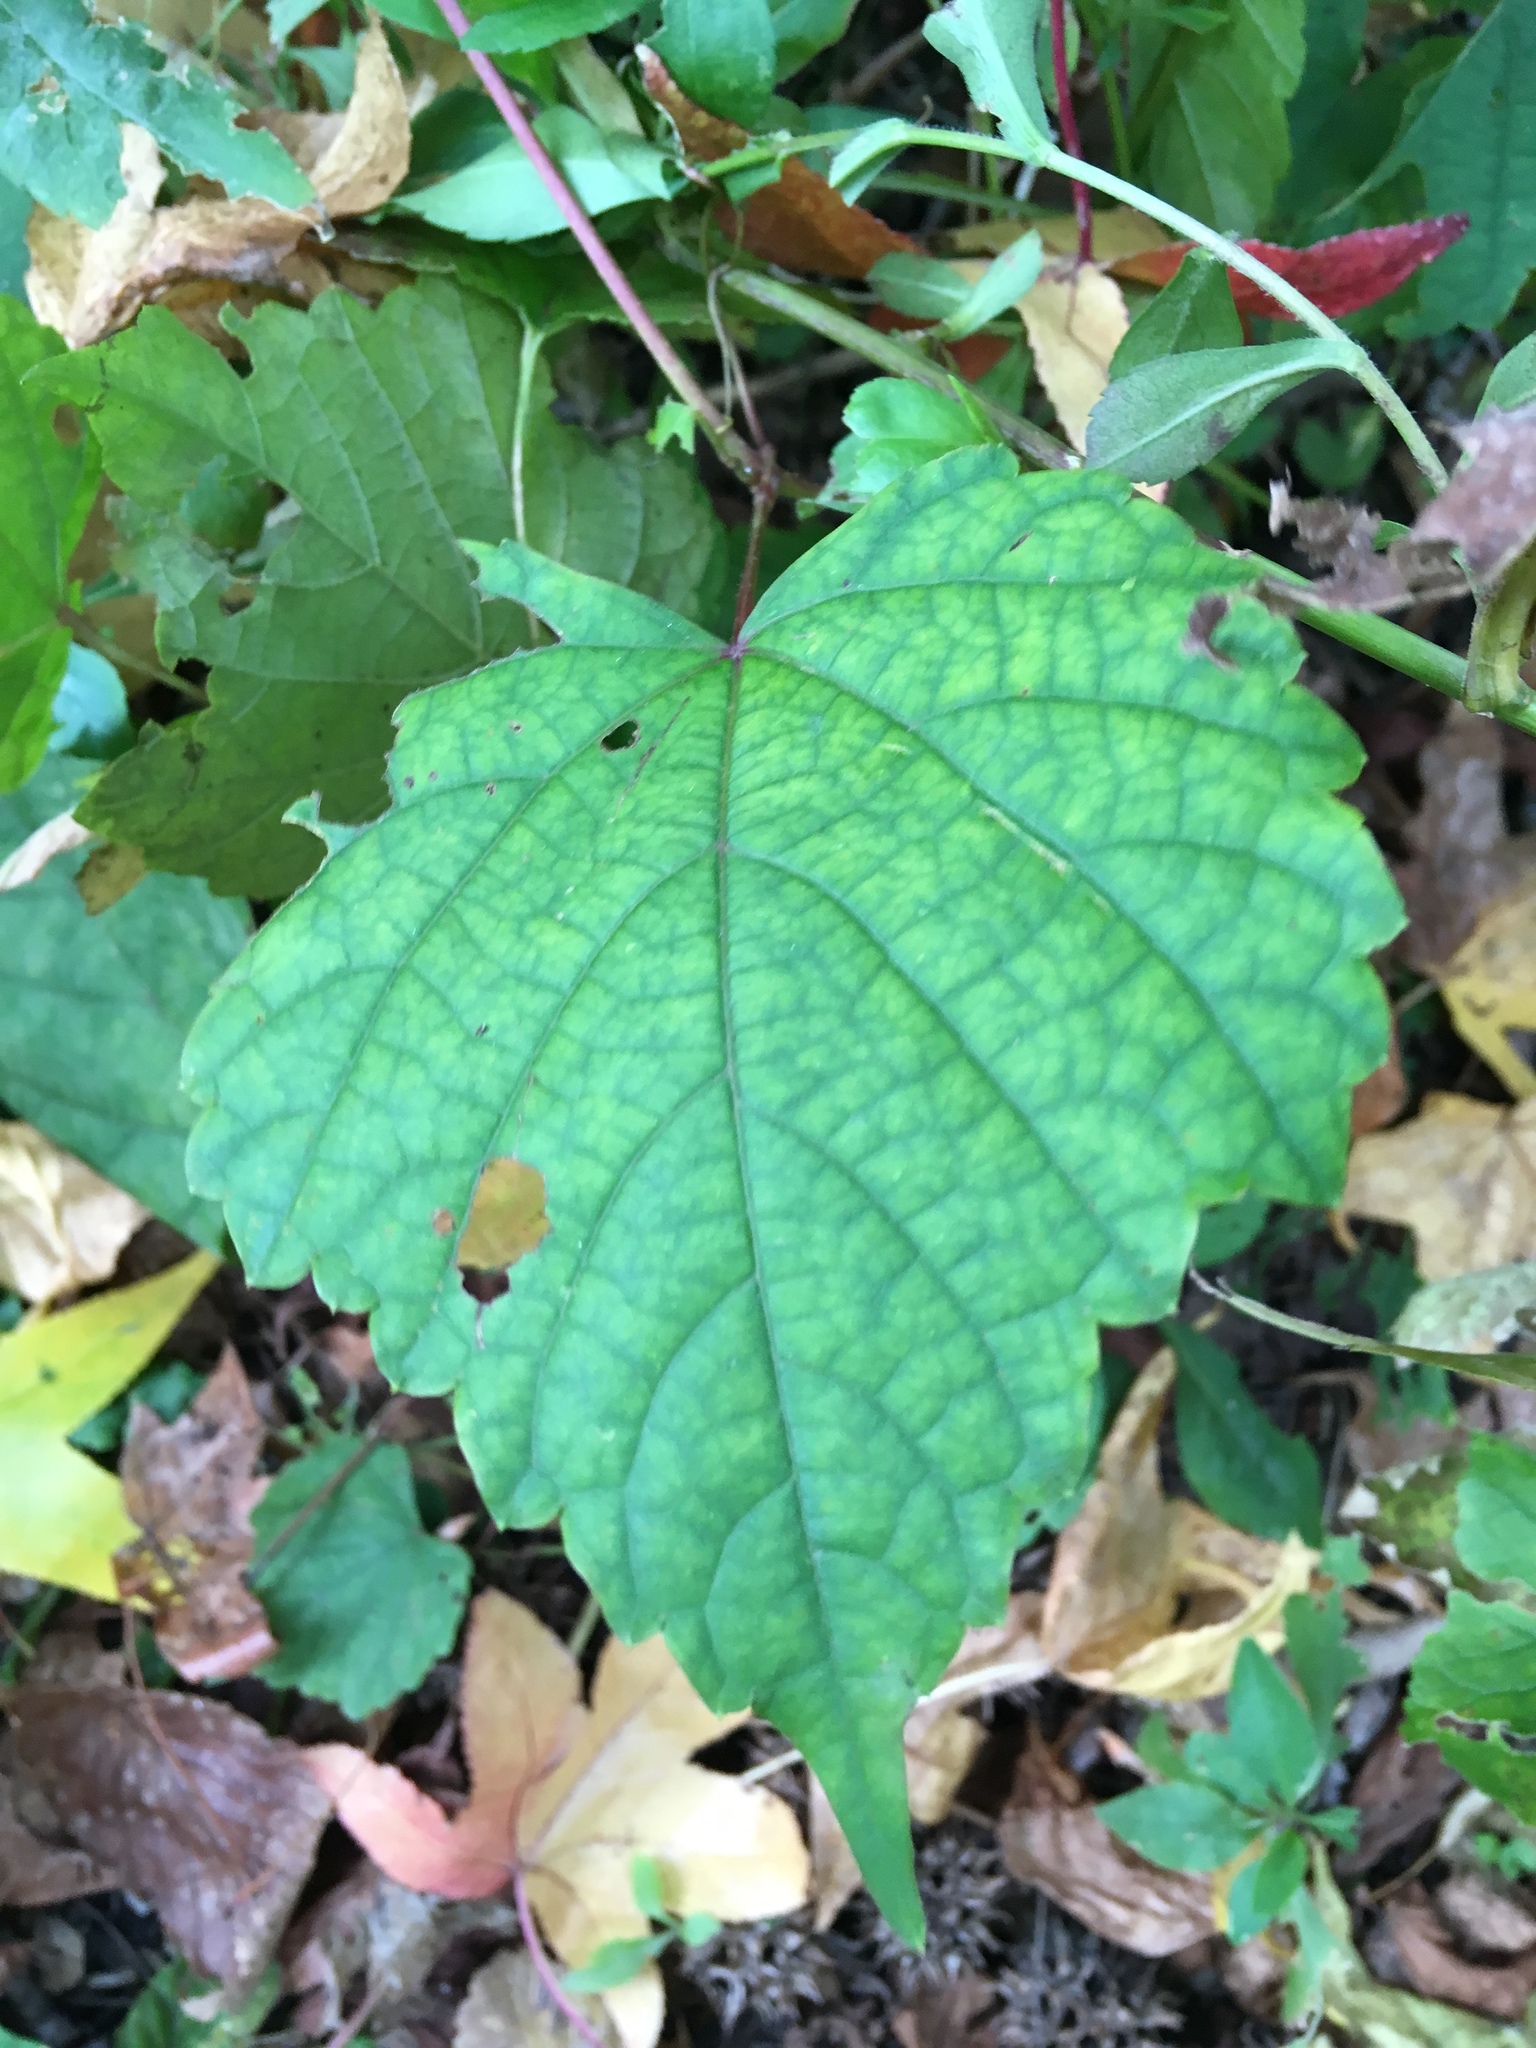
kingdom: Plantae
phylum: Tracheophyta
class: Magnoliopsida
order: Vitales
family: Vitaceae
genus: Ampelopsis
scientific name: Ampelopsis glandulosa
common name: Amur peppervine
